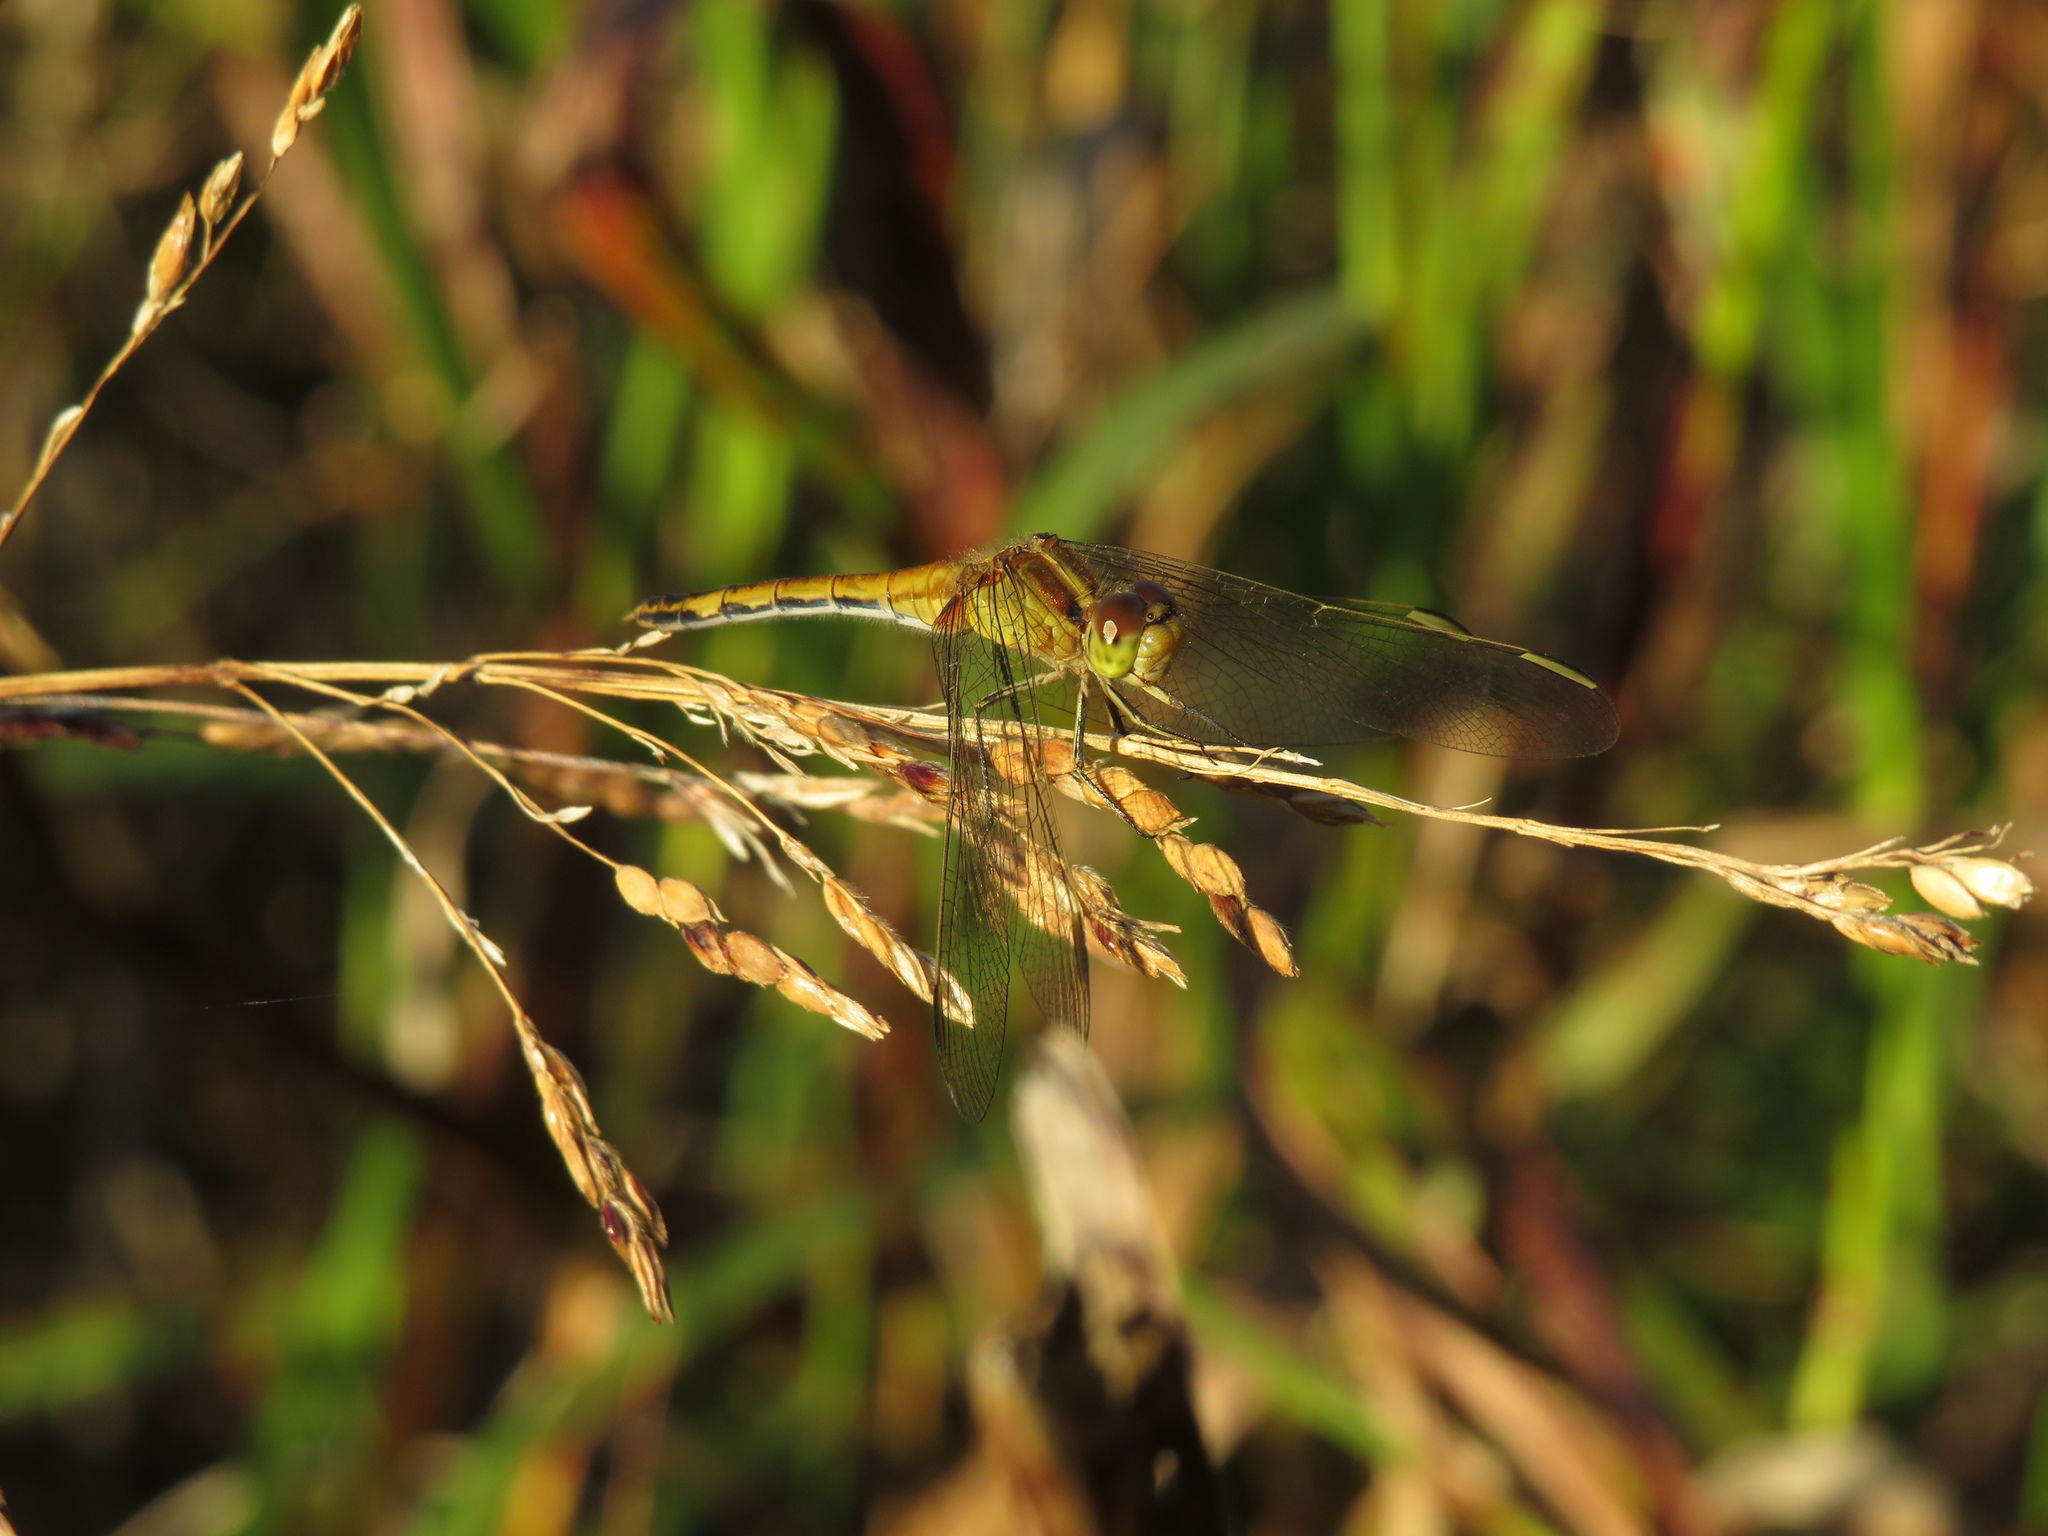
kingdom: Animalia
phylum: Arthropoda
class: Insecta
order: Odonata
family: Libellulidae
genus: Erythrodiplax
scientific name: Erythrodiplax nigricans
